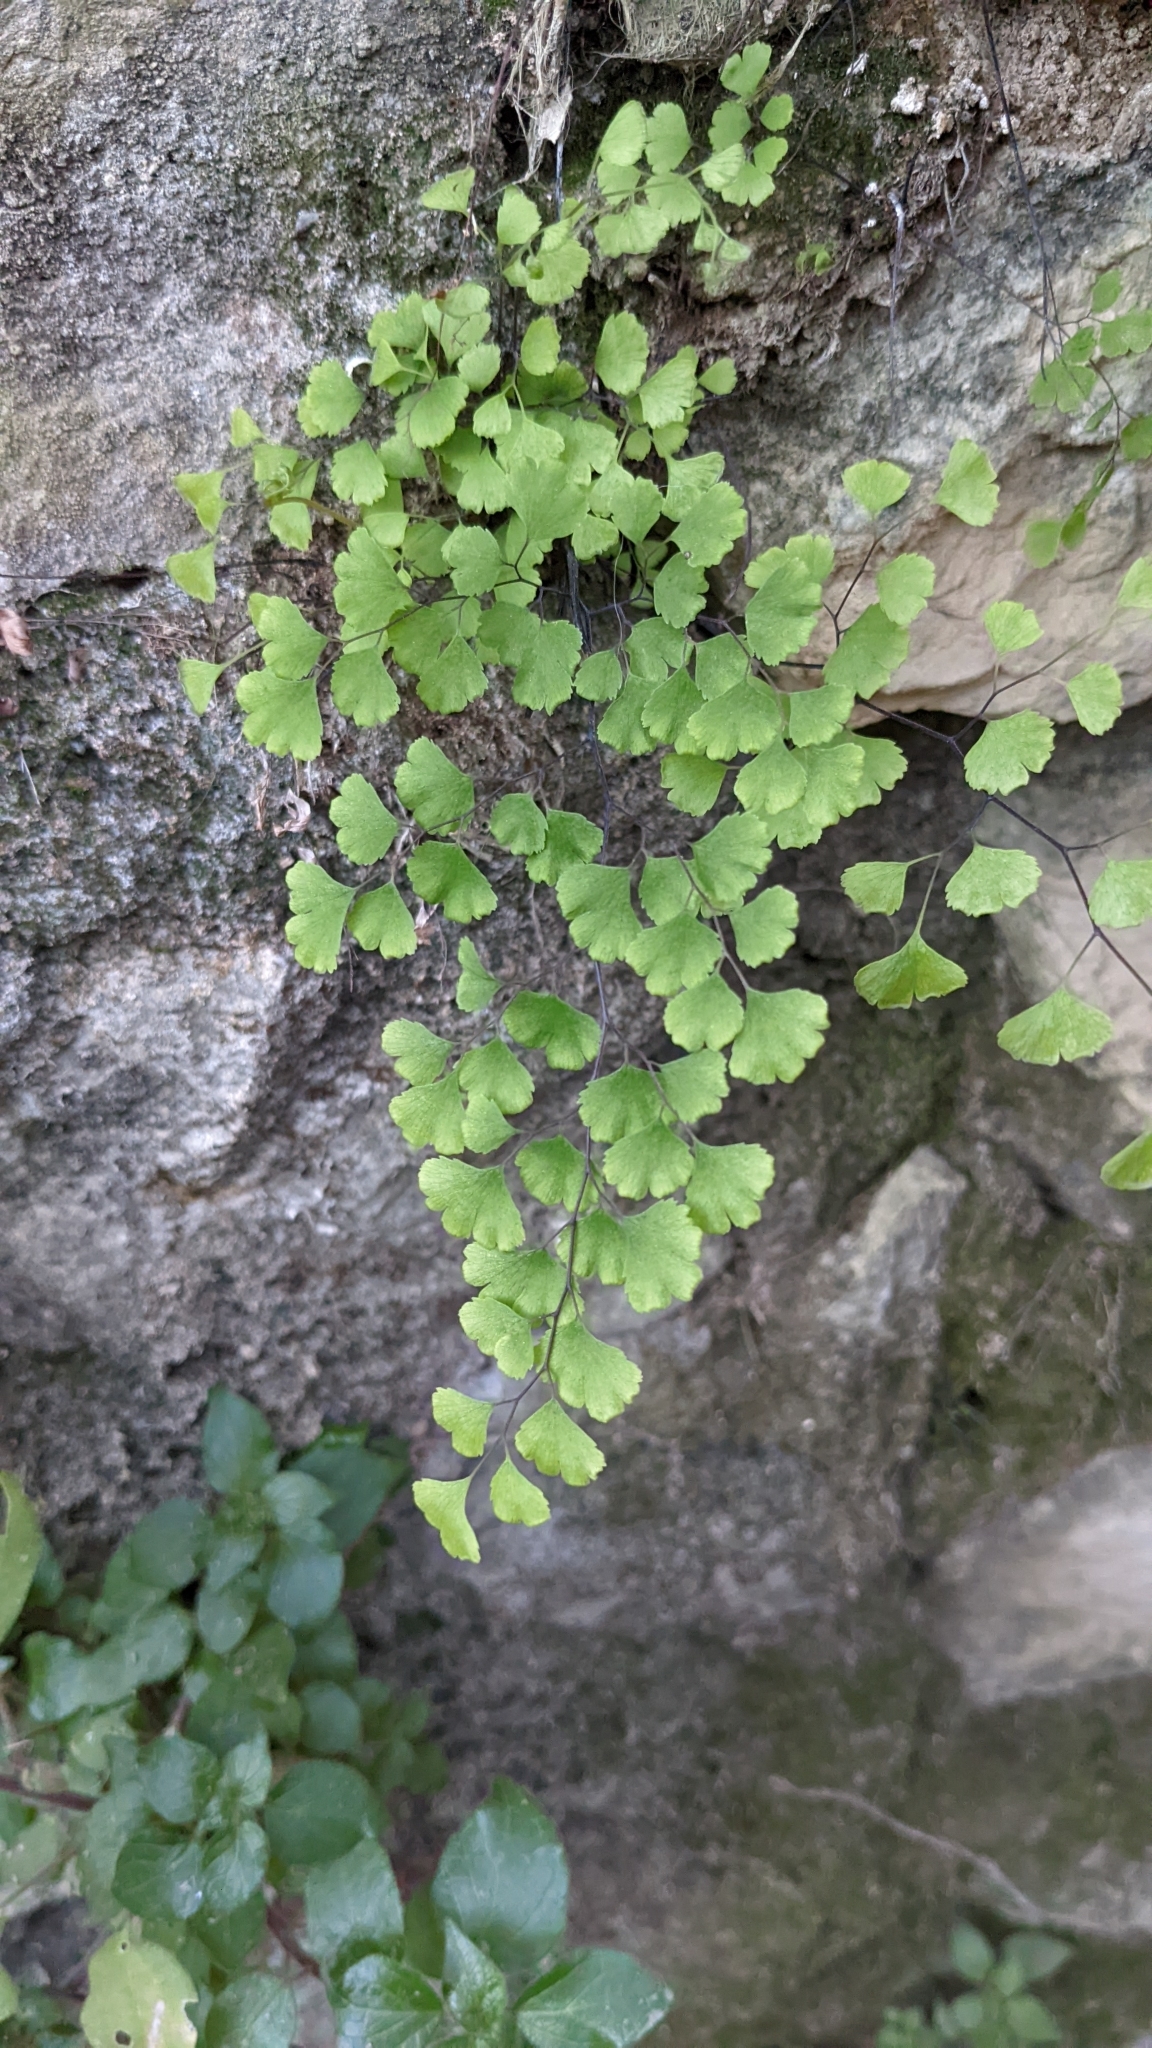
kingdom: Plantae
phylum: Tracheophyta
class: Polypodiopsida
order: Polypodiales
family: Pteridaceae
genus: Adiantum
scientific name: Adiantum capillus-veneris
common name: Maidenhair fern
